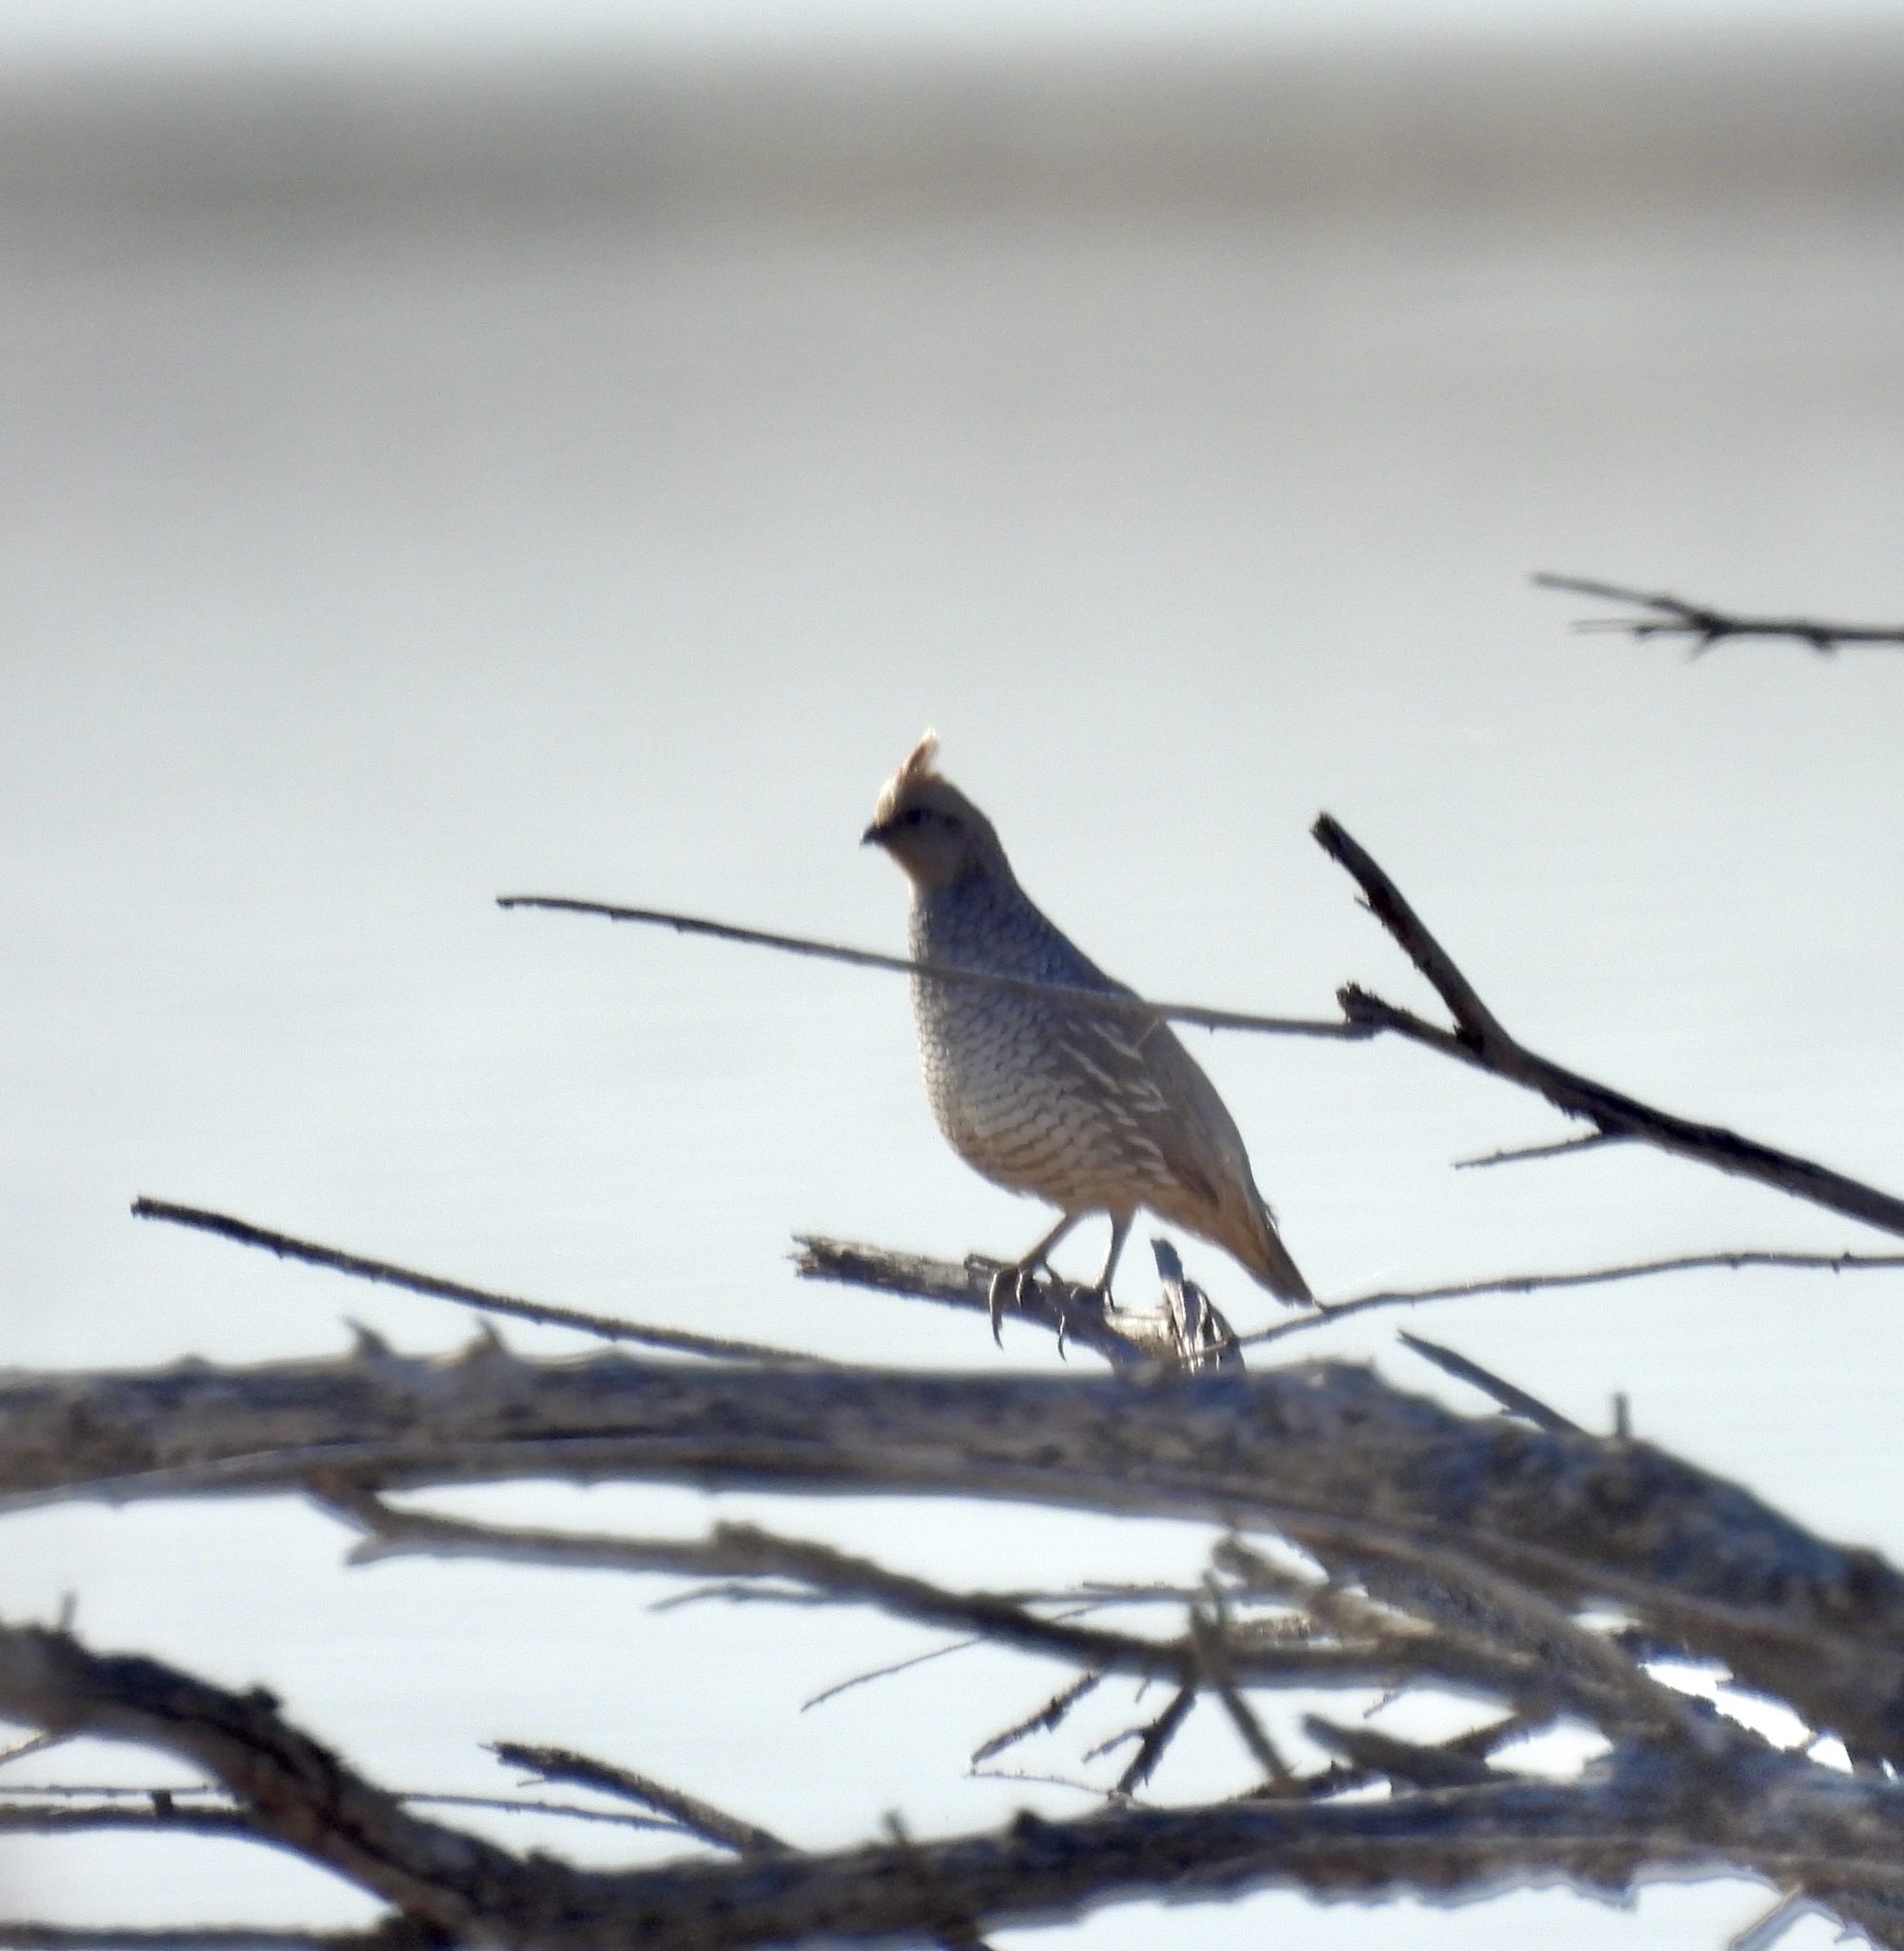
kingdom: Animalia
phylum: Chordata
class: Aves
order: Galliformes
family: Odontophoridae
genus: Callipepla
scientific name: Callipepla squamata
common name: Scaled quail
